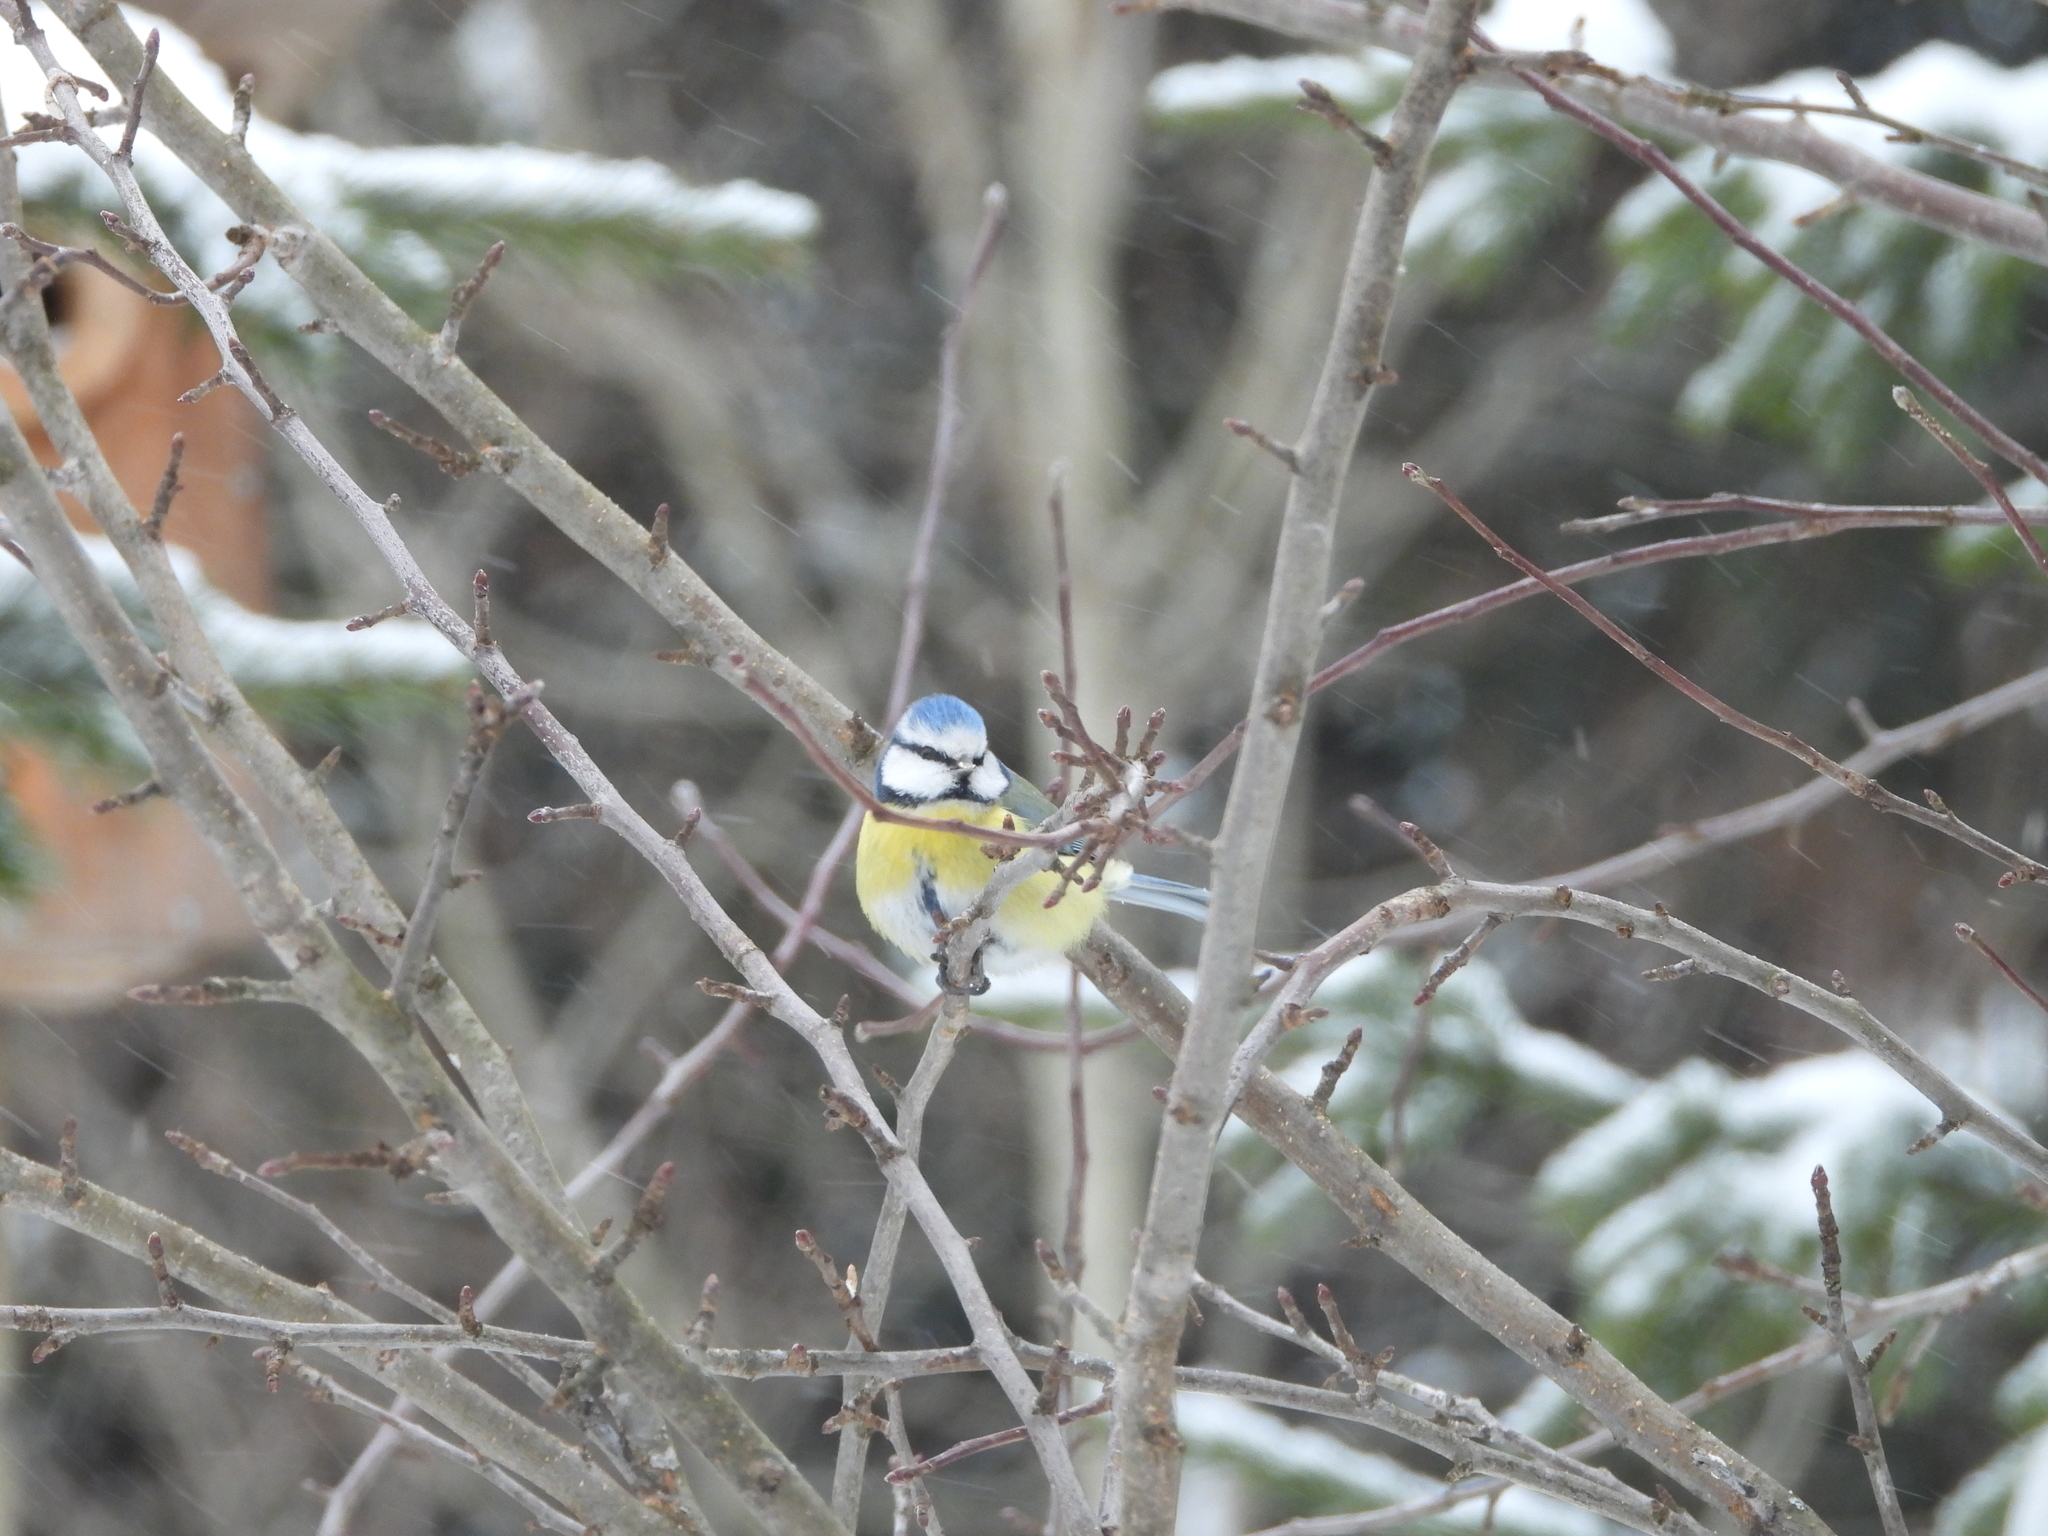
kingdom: Animalia
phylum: Chordata
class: Aves
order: Passeriformes
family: Paridae
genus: Cyanistes
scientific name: Cyanistes caeruleus
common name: Eurasian blue tit
